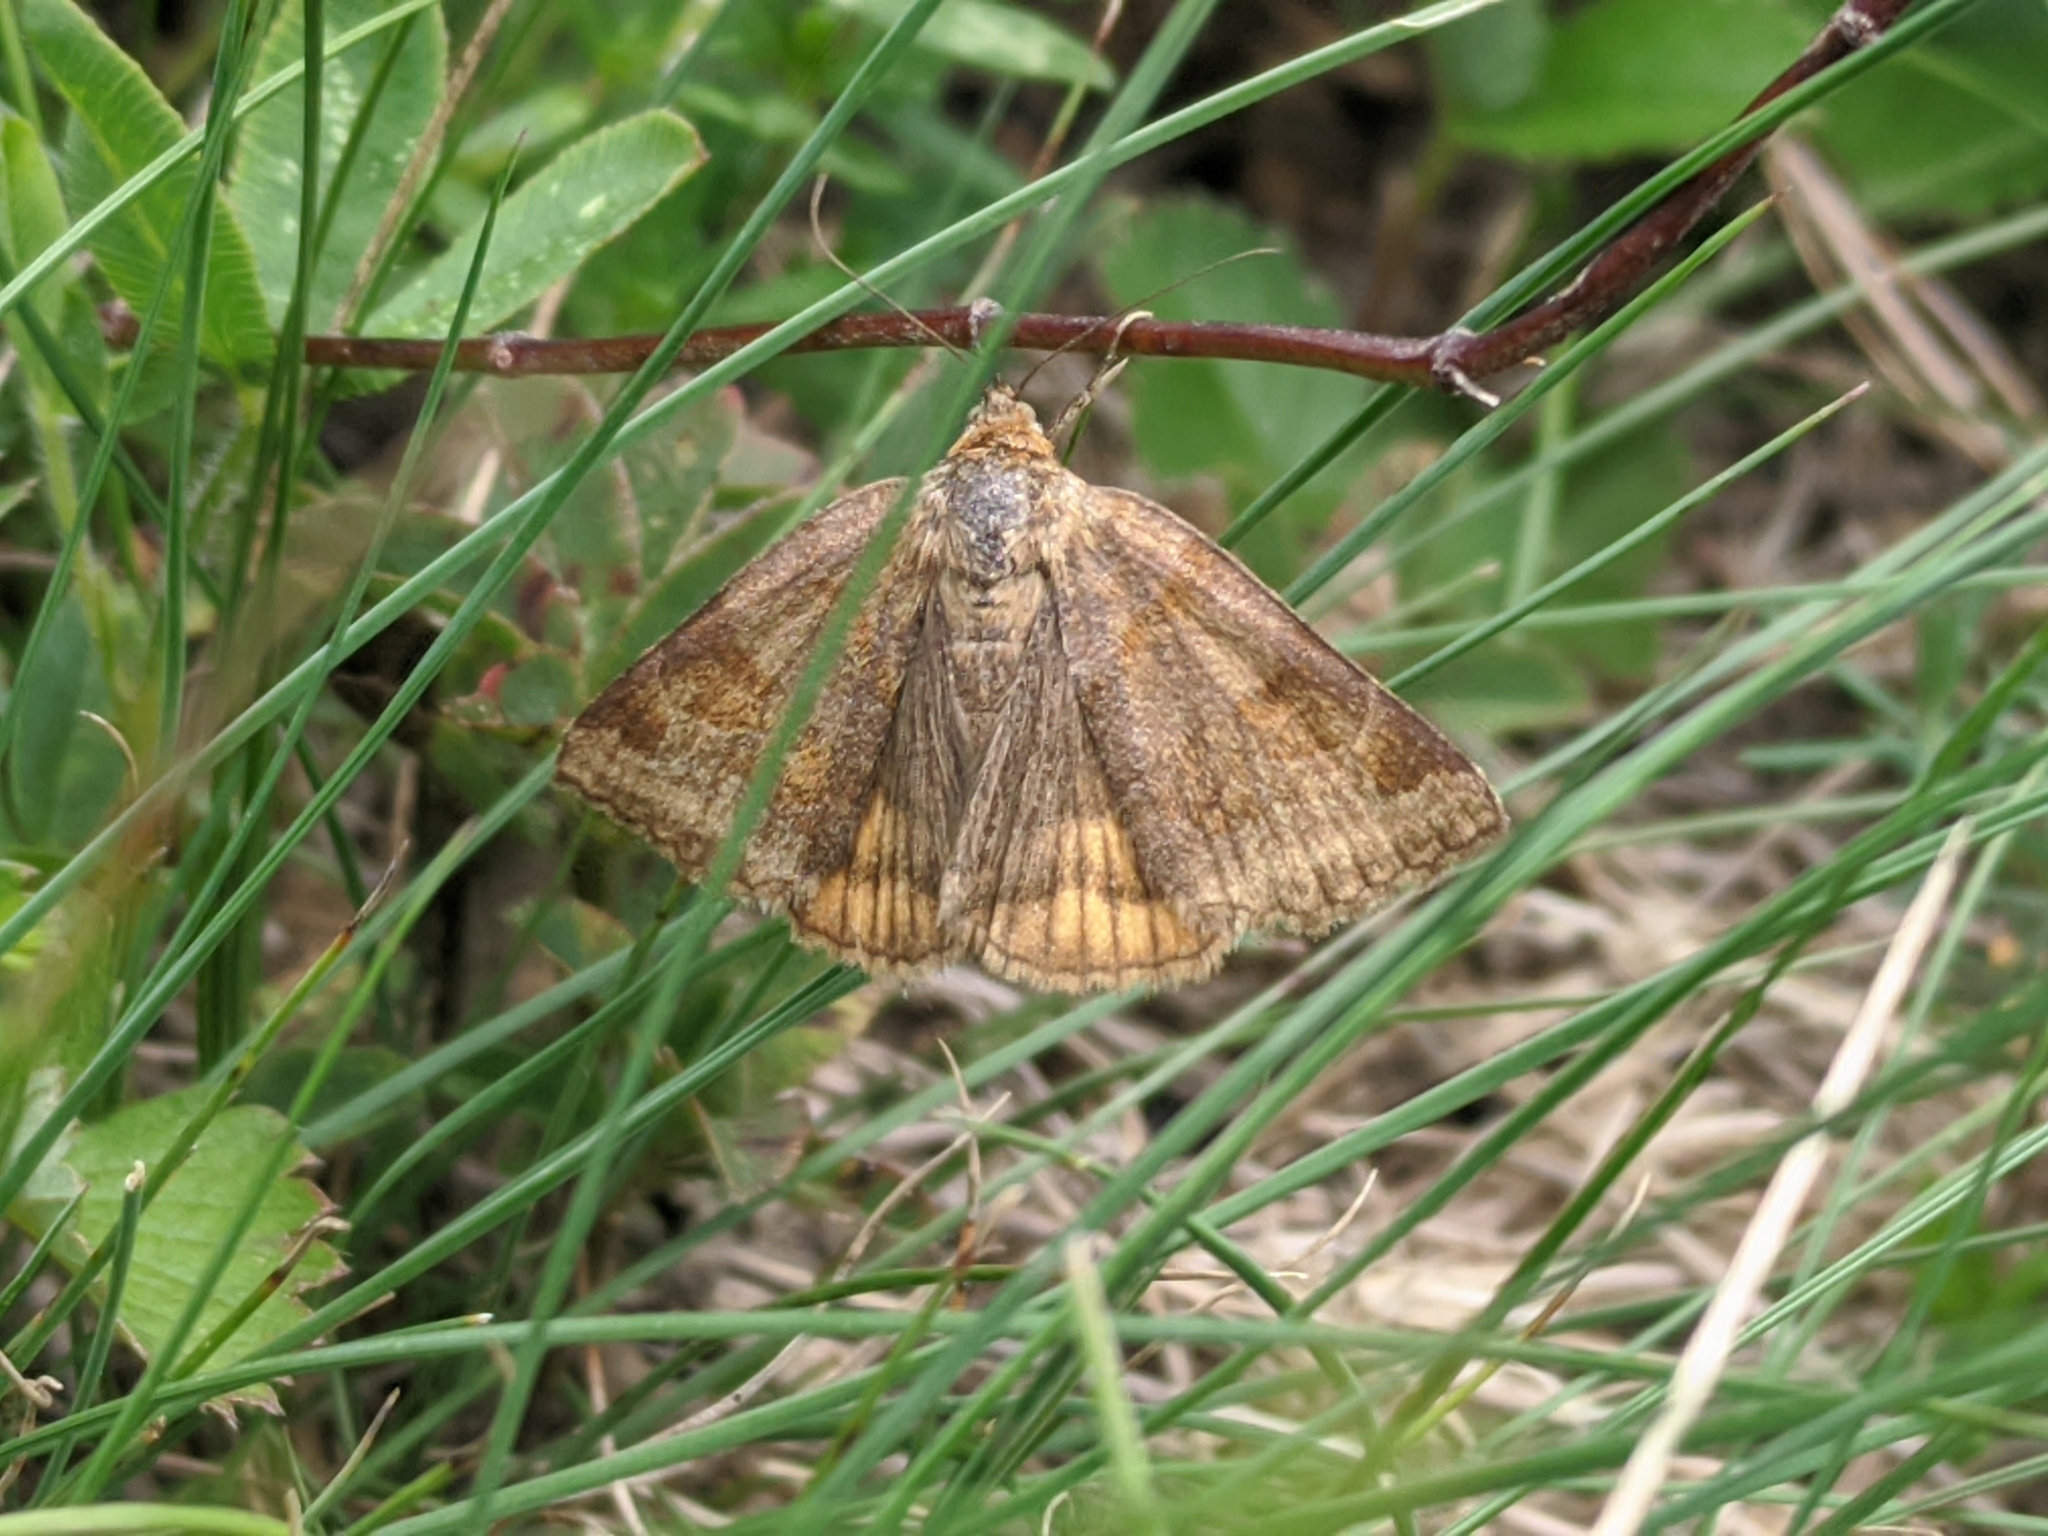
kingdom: Animalia
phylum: Arthropoda
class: Insecta
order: Lepidoptera
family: Erebidae
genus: Euclidia
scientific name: Euclidia glyphica
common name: Burnet companion
